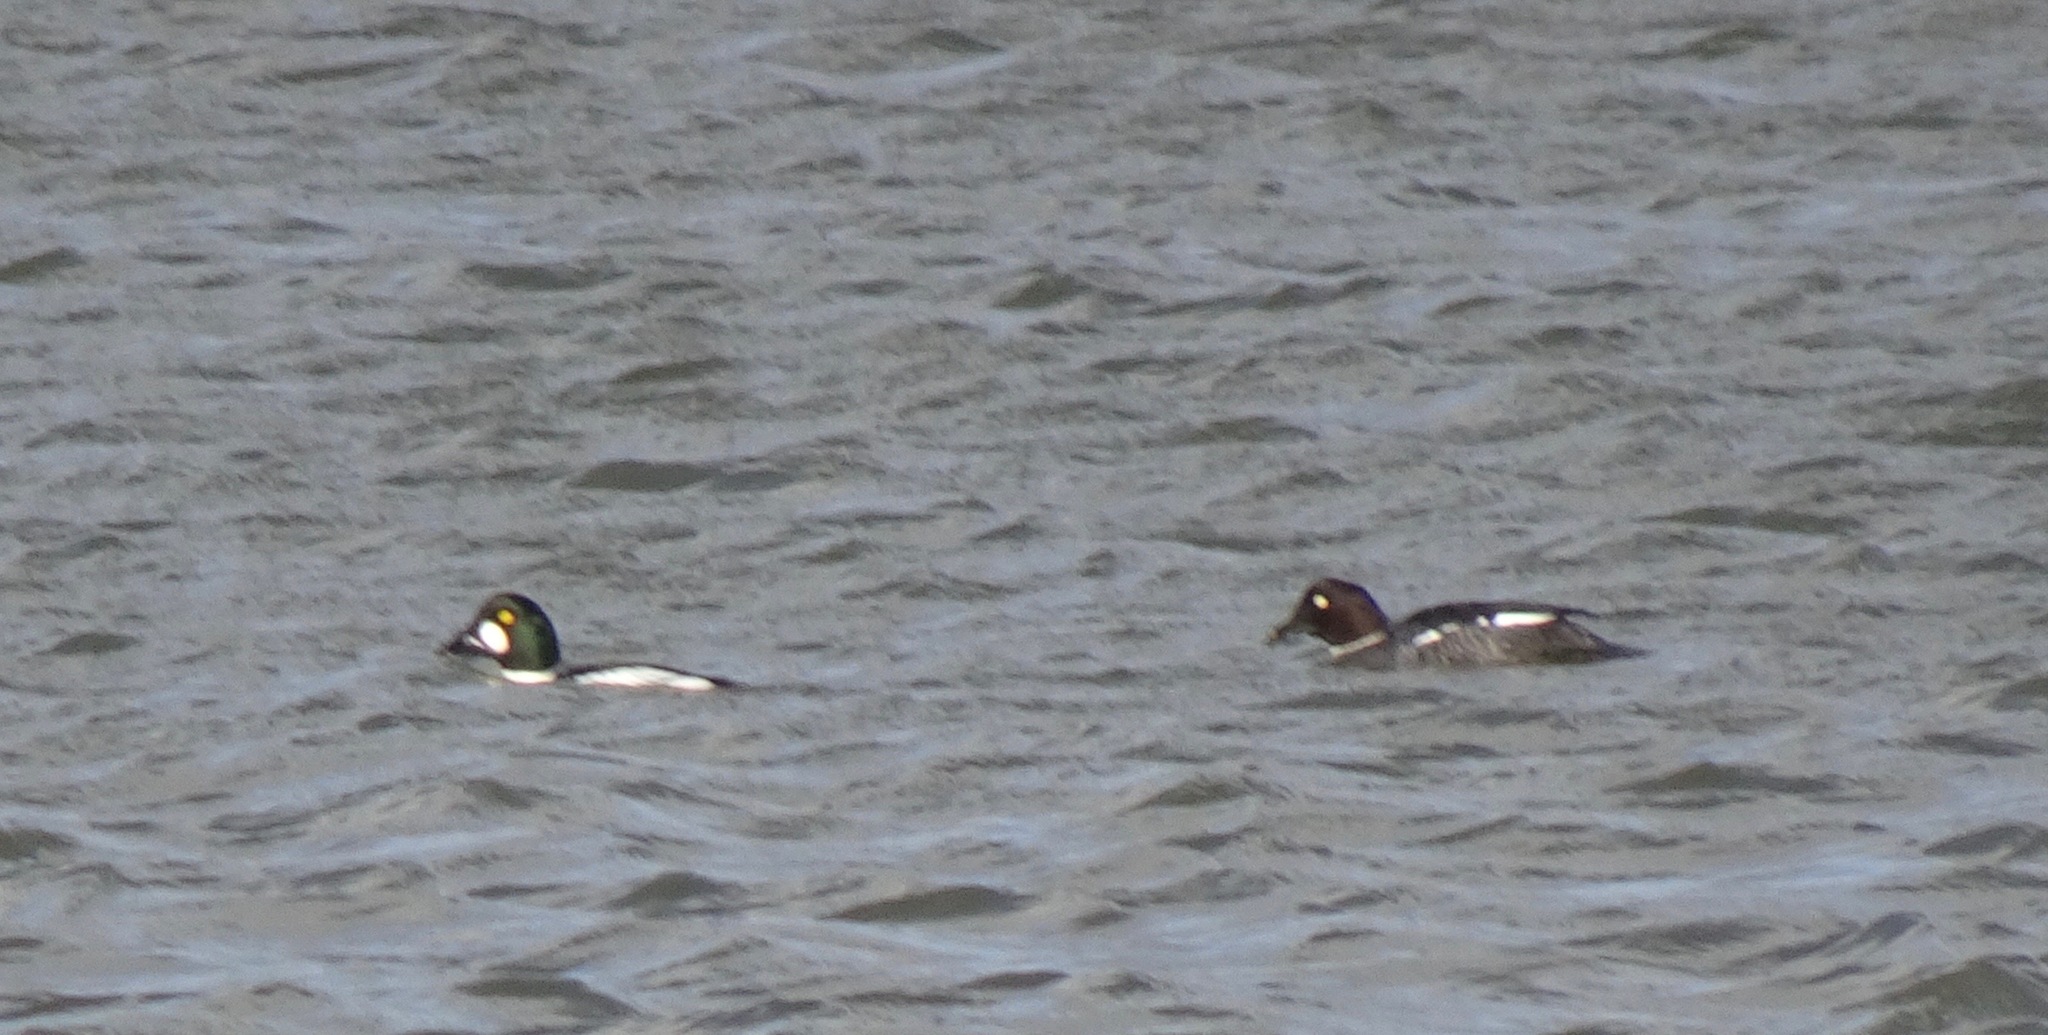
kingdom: Animalia
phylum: Chordata
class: Aves
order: Anseriformes
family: Anatidae
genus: Bucephala
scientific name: Bucephala clangula
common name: Common goldeneye
